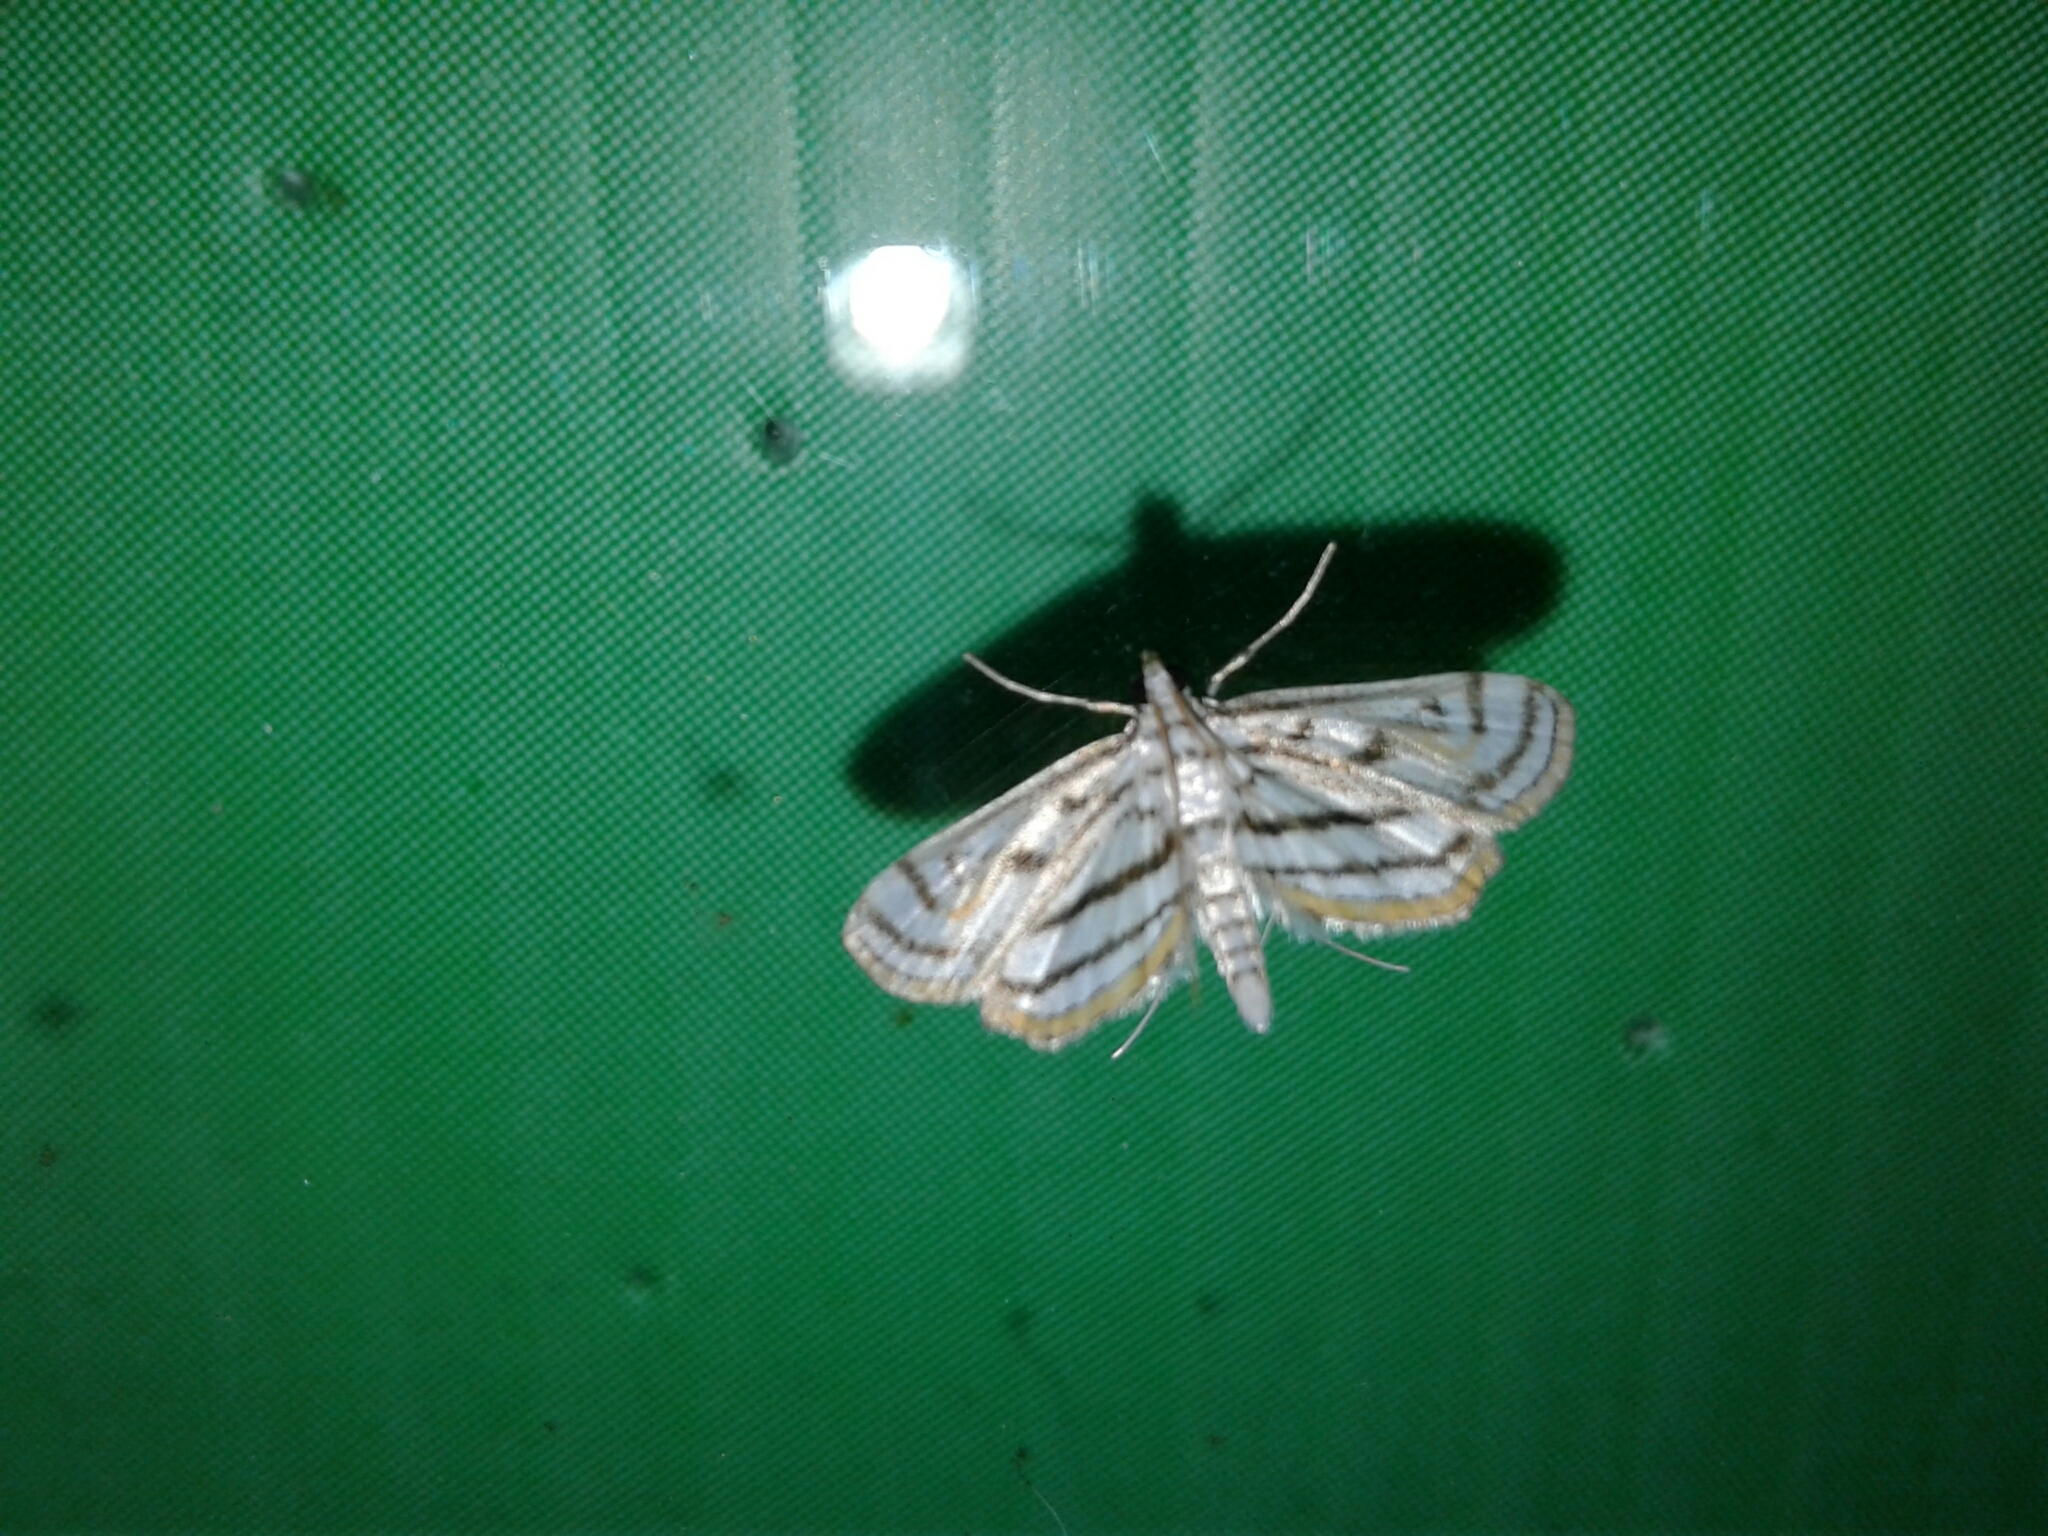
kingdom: Animalia
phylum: Arthropoda
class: Insecta
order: Lepidoptera
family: Crambidae
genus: Parapoynx
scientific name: Parapoynx badiusalis
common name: Chestnut-marked pondweed moth
